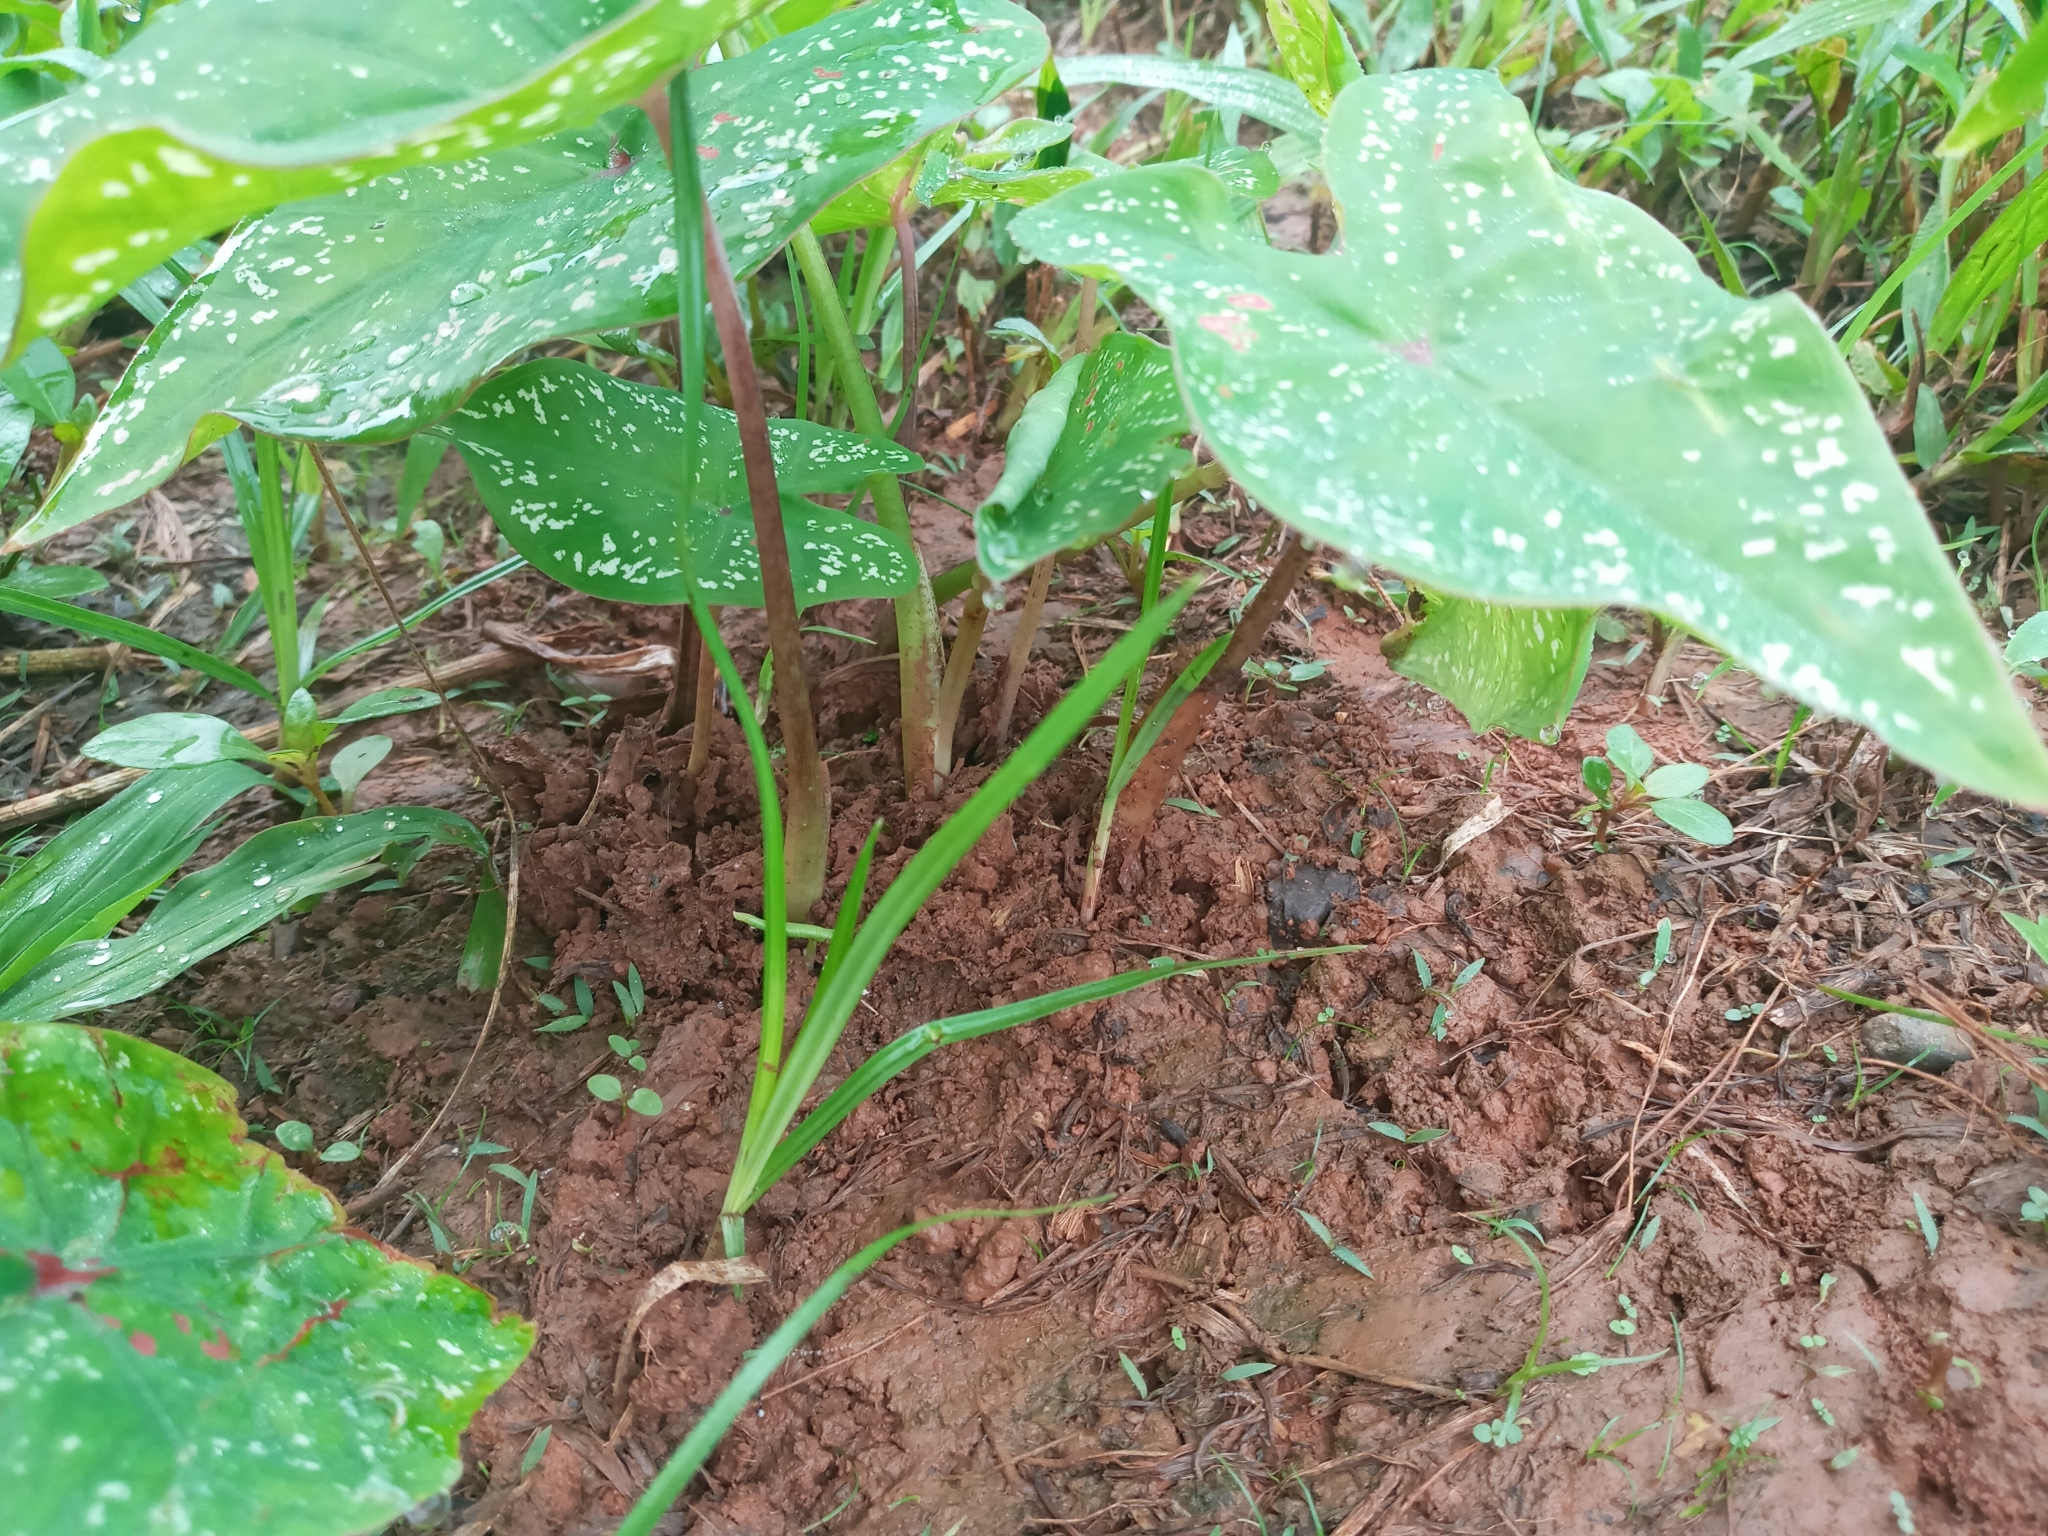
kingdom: Plantae
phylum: Tracheophyta
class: Liliopsida
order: Alismatales
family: Araceae
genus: Caladium
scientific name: Caladium bicolor
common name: Artist's pallet
